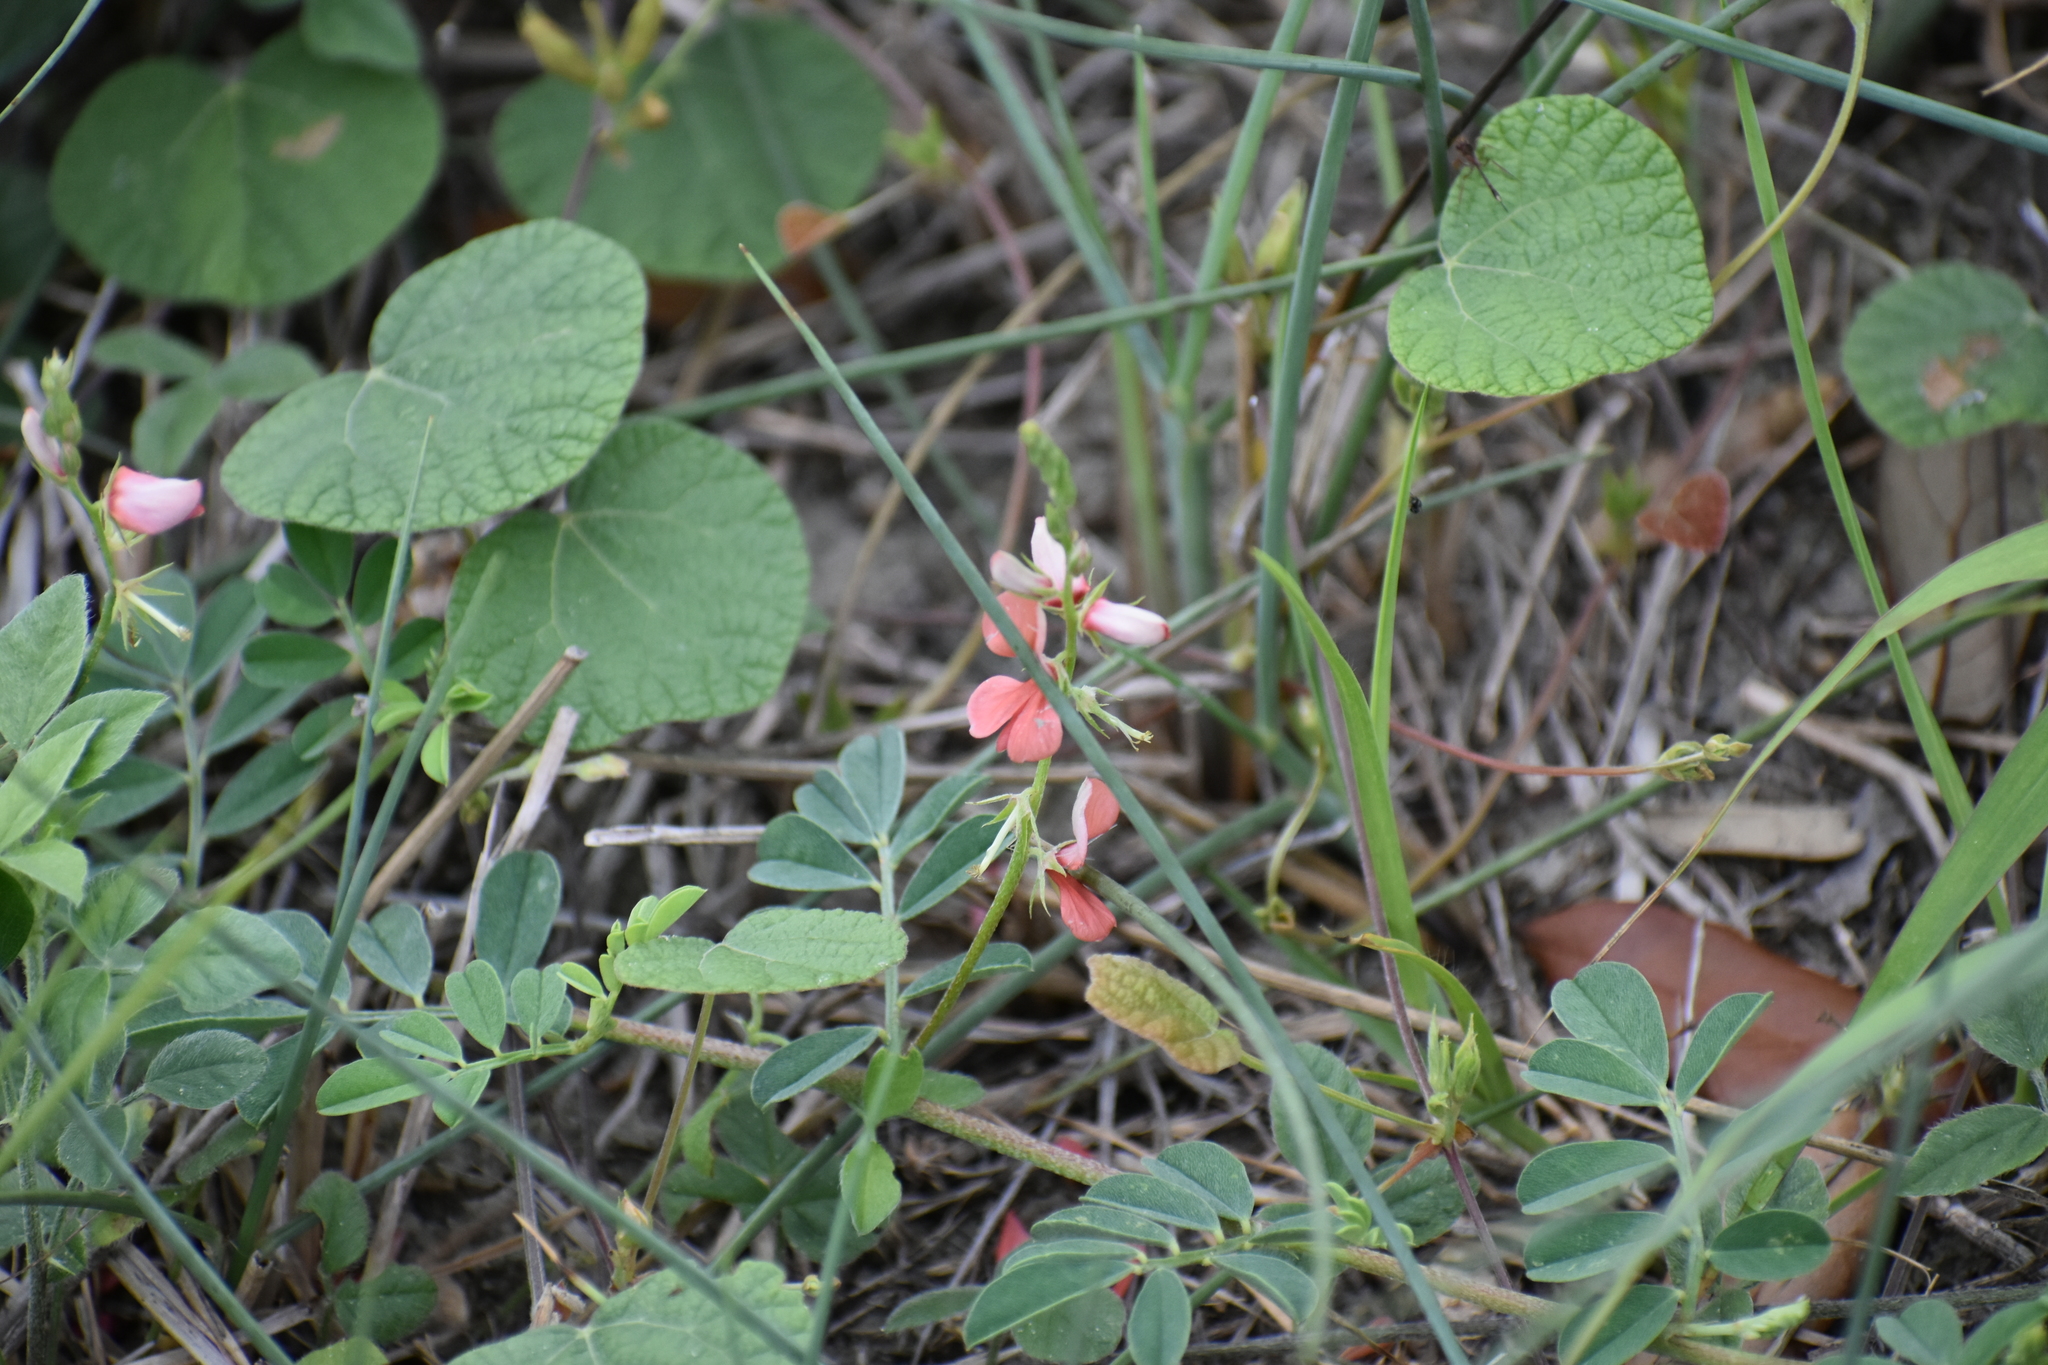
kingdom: Plantae
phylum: Tracheophyta
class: Magnoliopsida
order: Fabales
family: Fabaceae
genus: Indigofera
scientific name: Indigofera miniata
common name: Coast indigo
